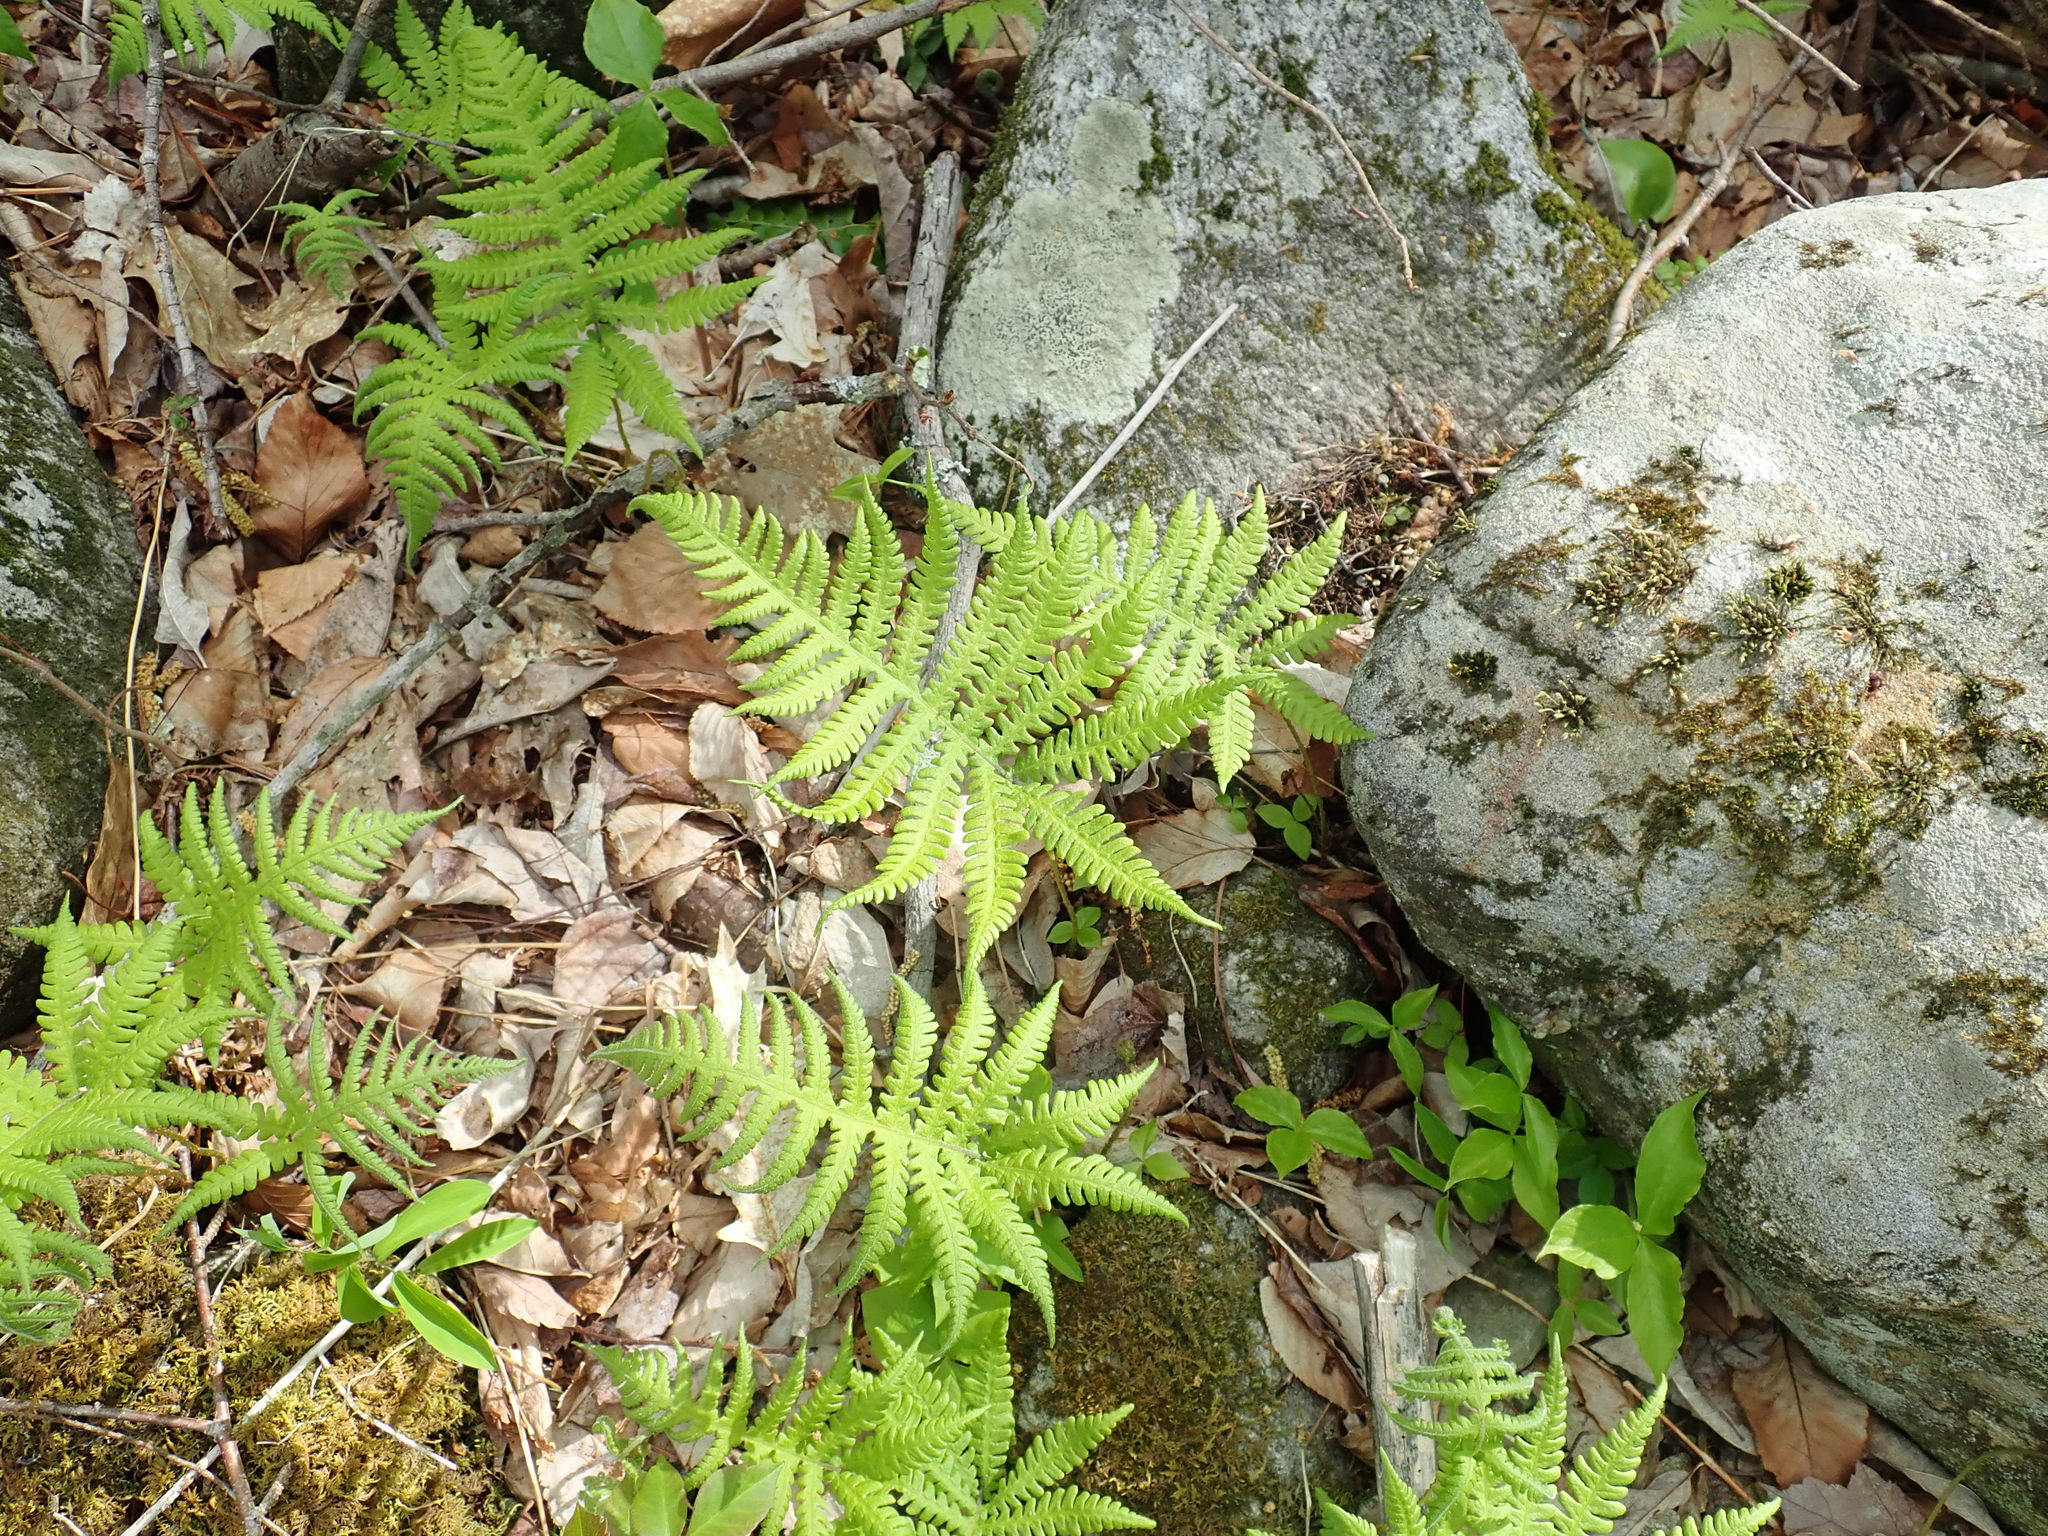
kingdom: Plantae
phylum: Tracheophyta
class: Polypodiopsida
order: Polypodiales
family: Thelypteridaceae
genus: Phegopteris
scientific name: Phegopteris connectilis
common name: Beech fern
